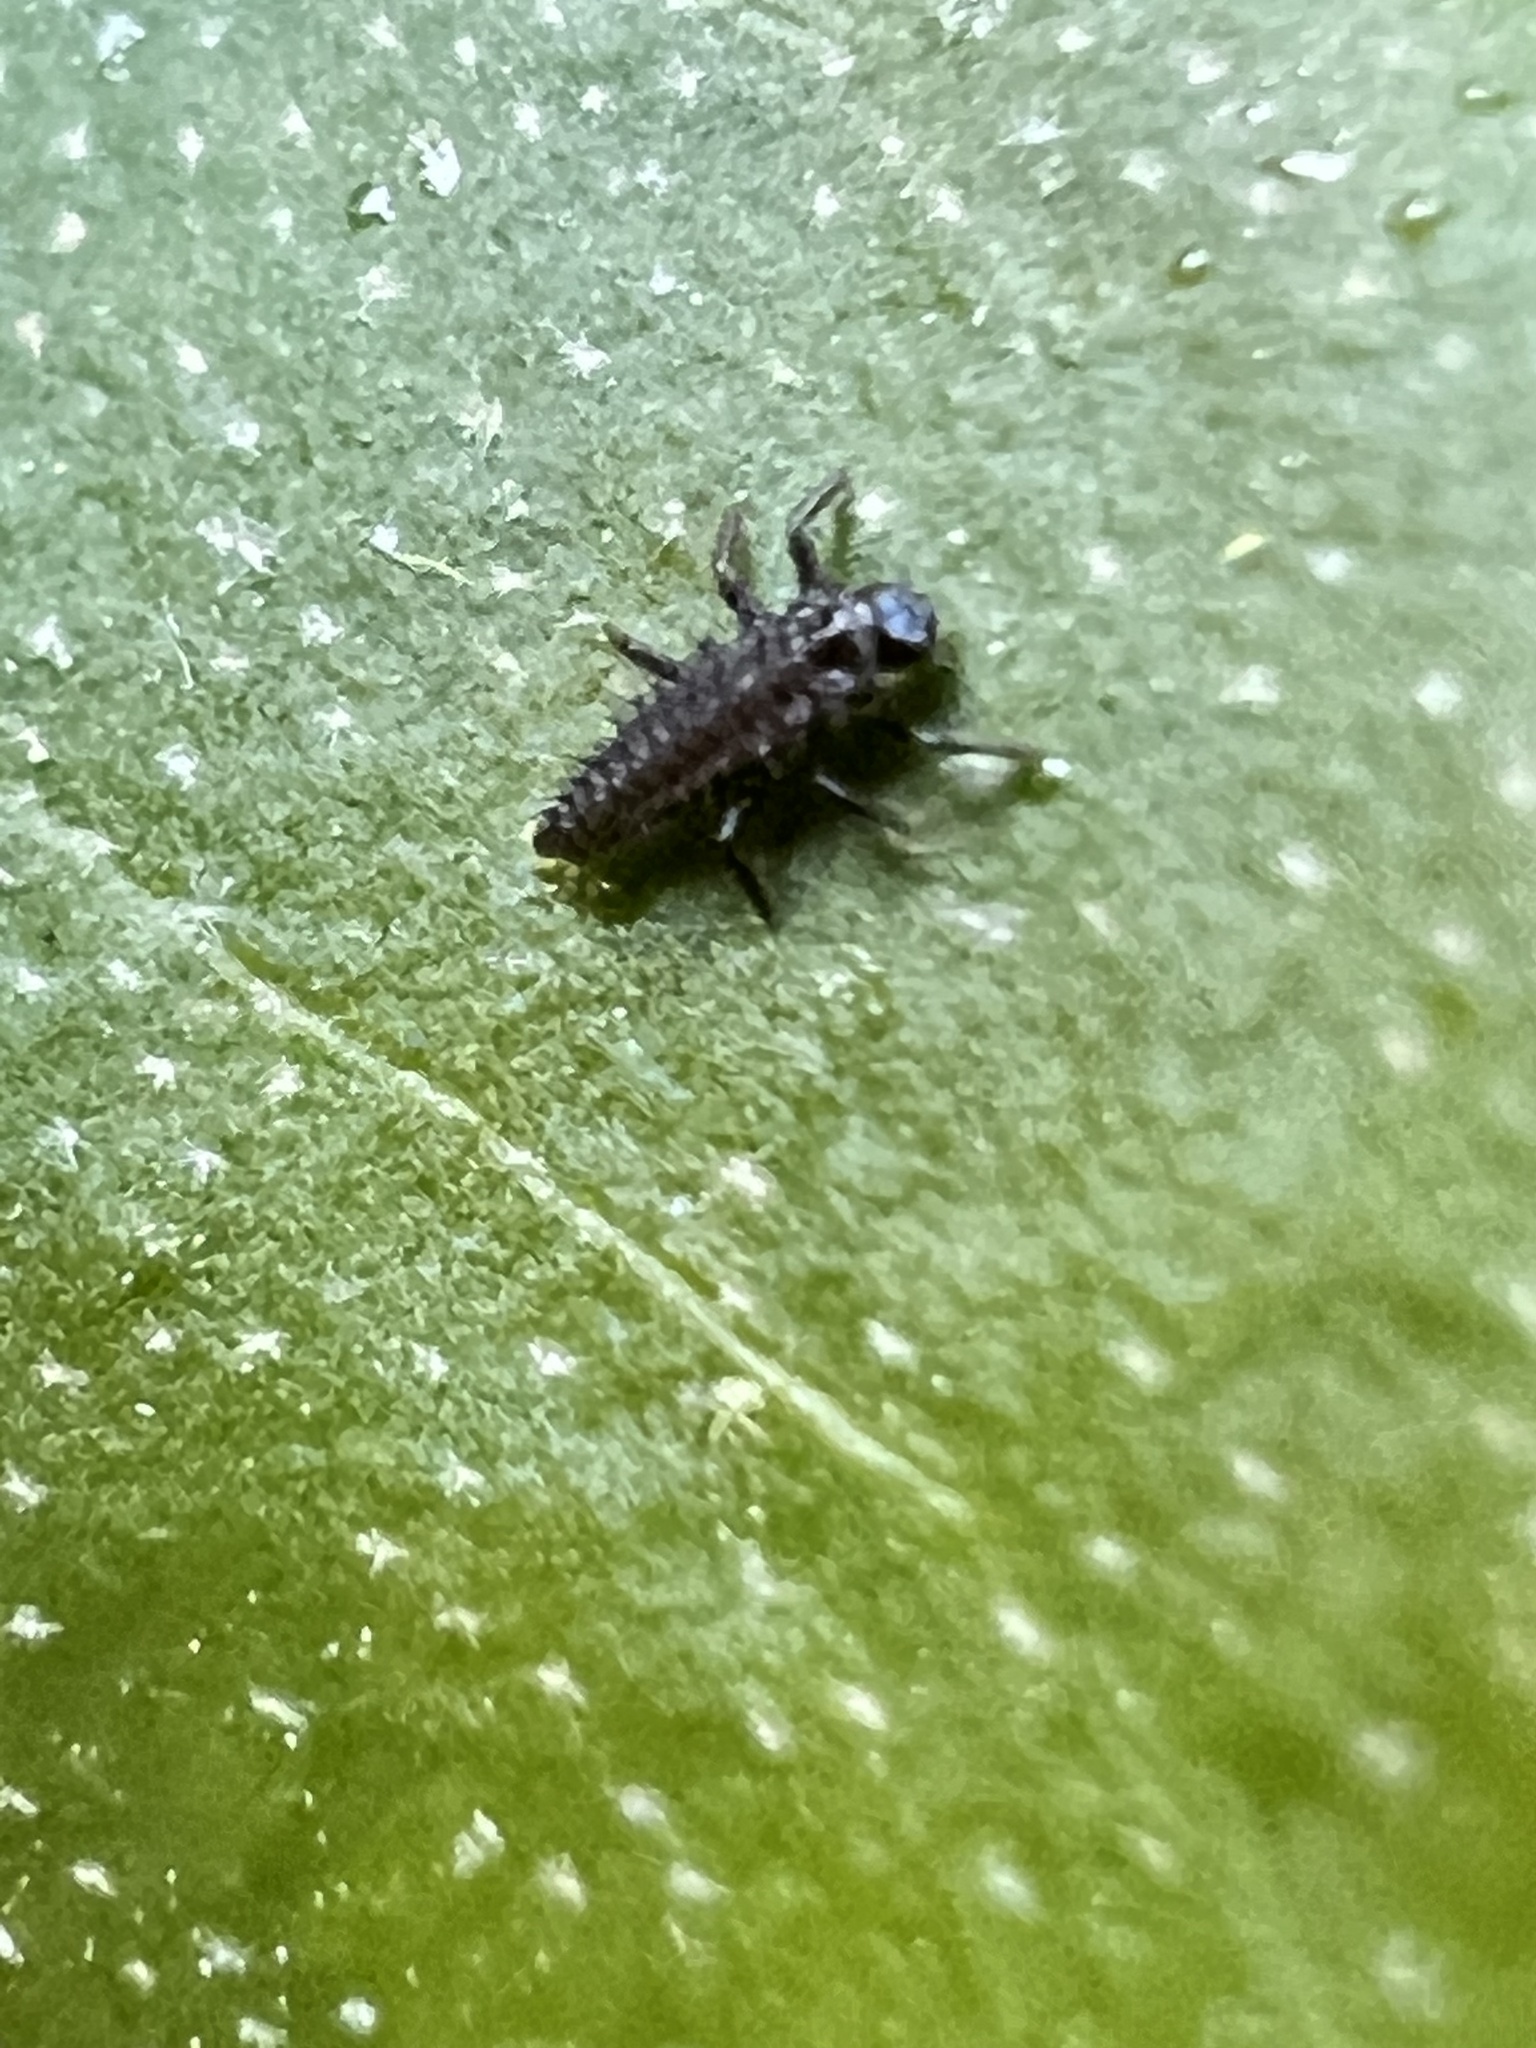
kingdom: Animalia
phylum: Arthropoda
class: Insecta
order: Coleoptera
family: Coccinellidae
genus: Harmonia
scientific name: Harmonia axyridis
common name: Harlequin ladybird
